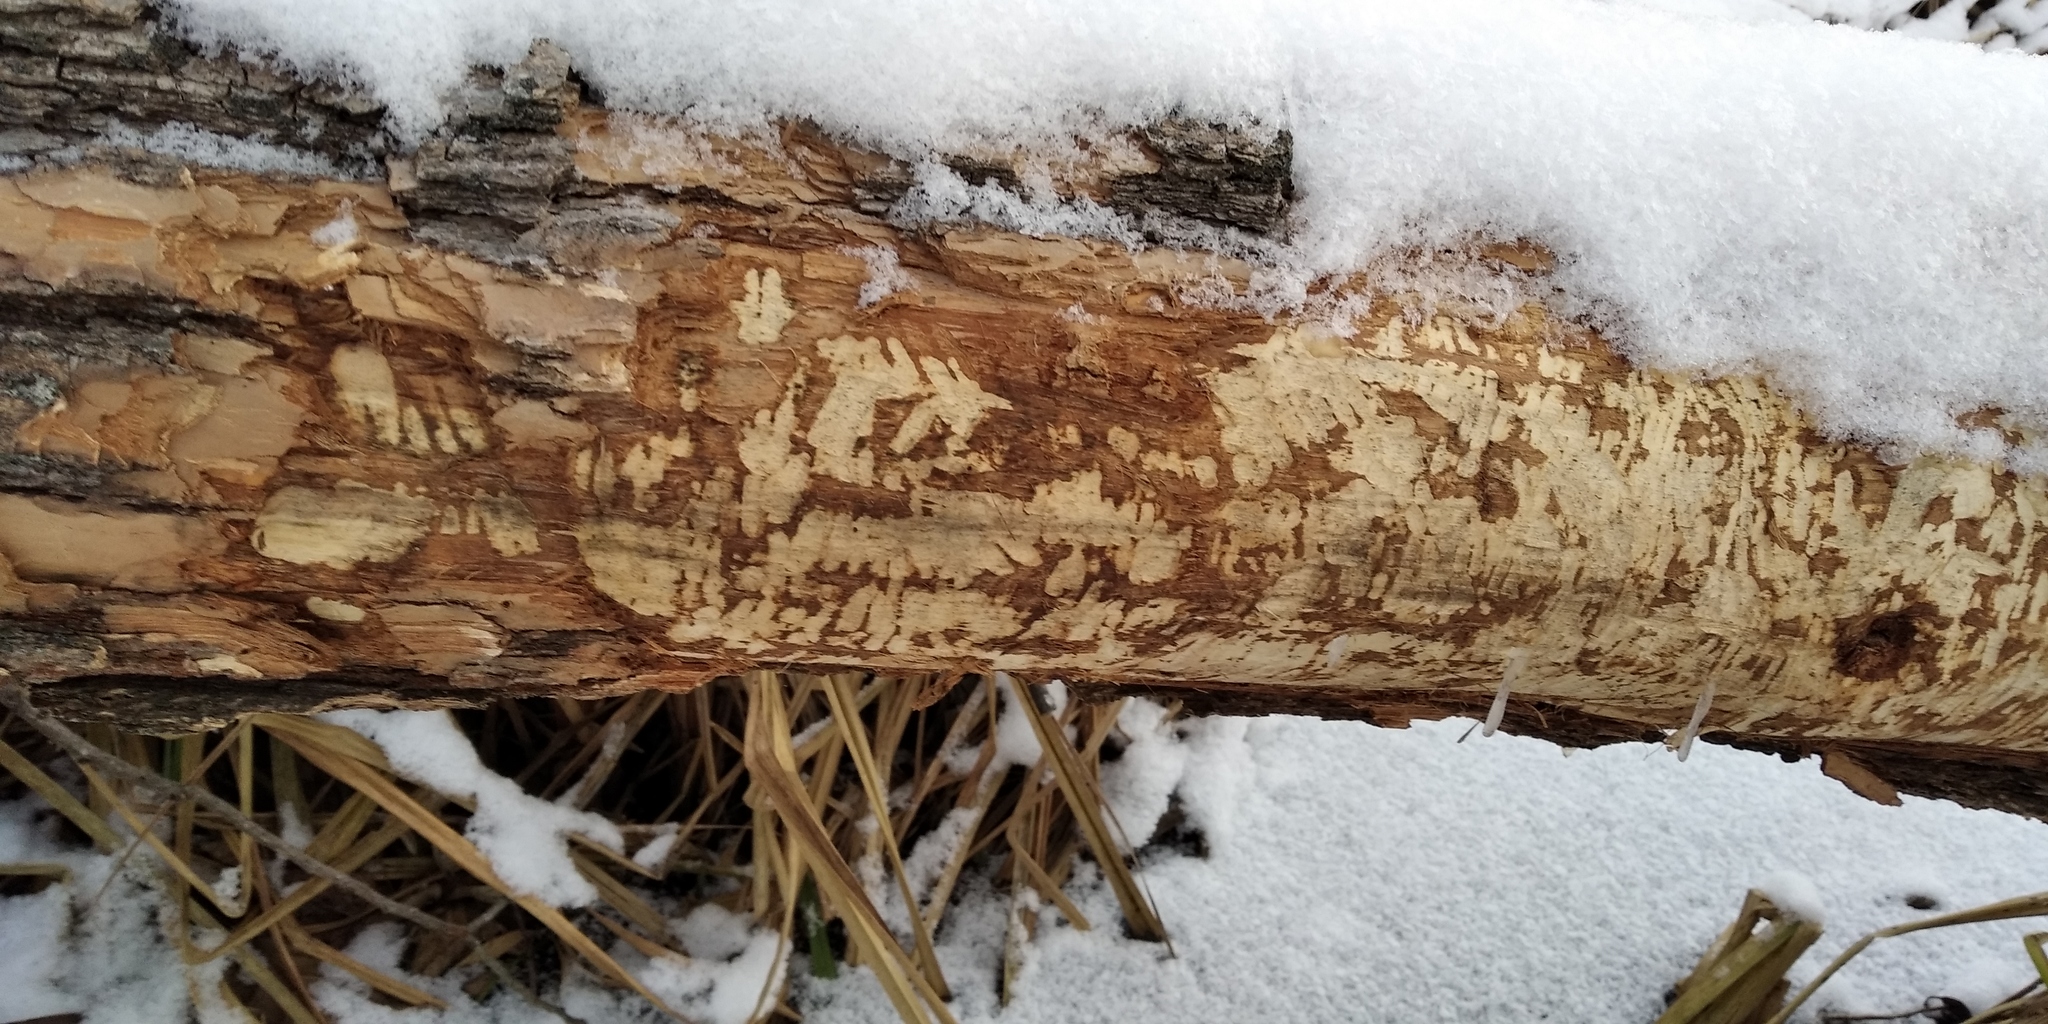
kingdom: Animalia
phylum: Chordata
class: Mammalia
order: Rodentia
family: Castoridae
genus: Castor
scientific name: Castor fiber
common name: Eurasian beaver
